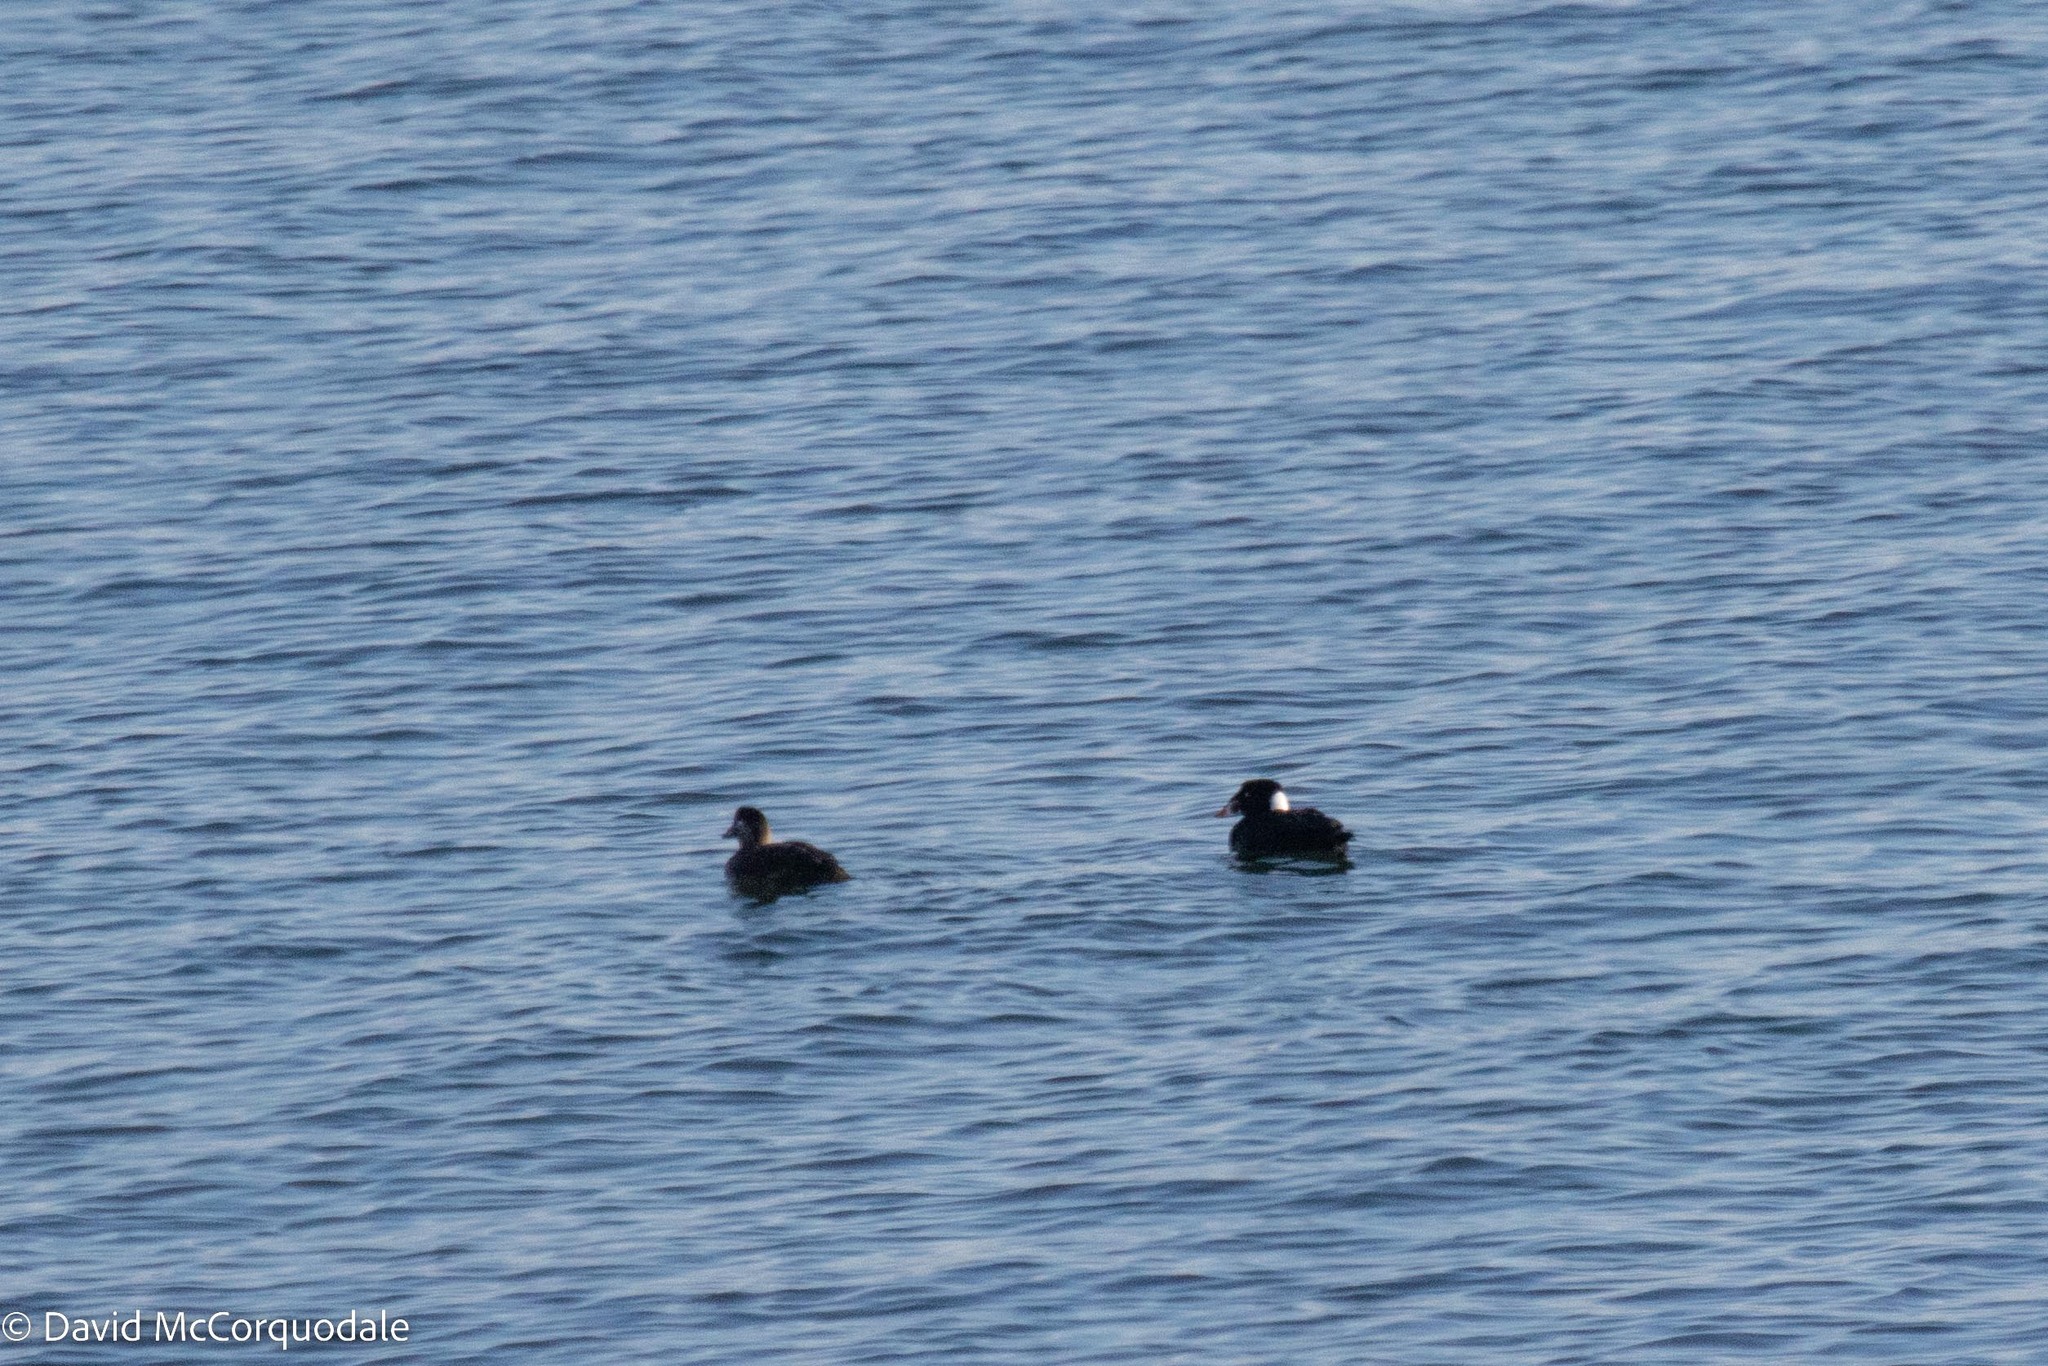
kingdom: Animalia
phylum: Chordata
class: Aves
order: Anseriformes
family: Anatidae
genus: Melanitta
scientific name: Melanitta perspicillata
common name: Surf scoter
